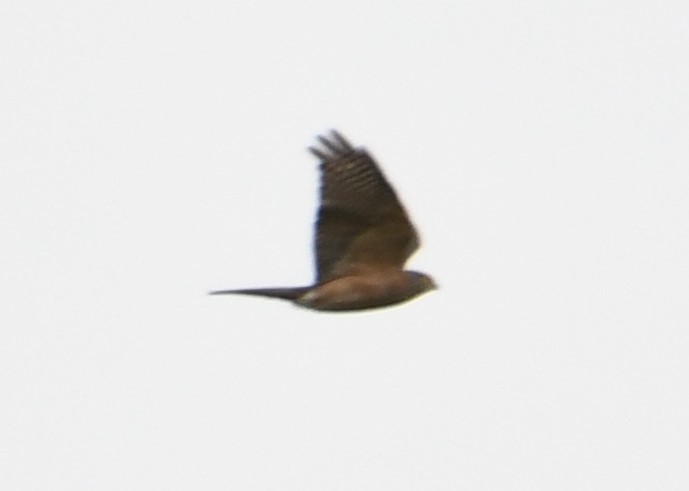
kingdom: Animalia
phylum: Chordata
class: Aves
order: Accipitriformes
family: Accipitridae
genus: Accipiter
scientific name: Accipiter cirrocephalus
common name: Collared sparrowhawk
